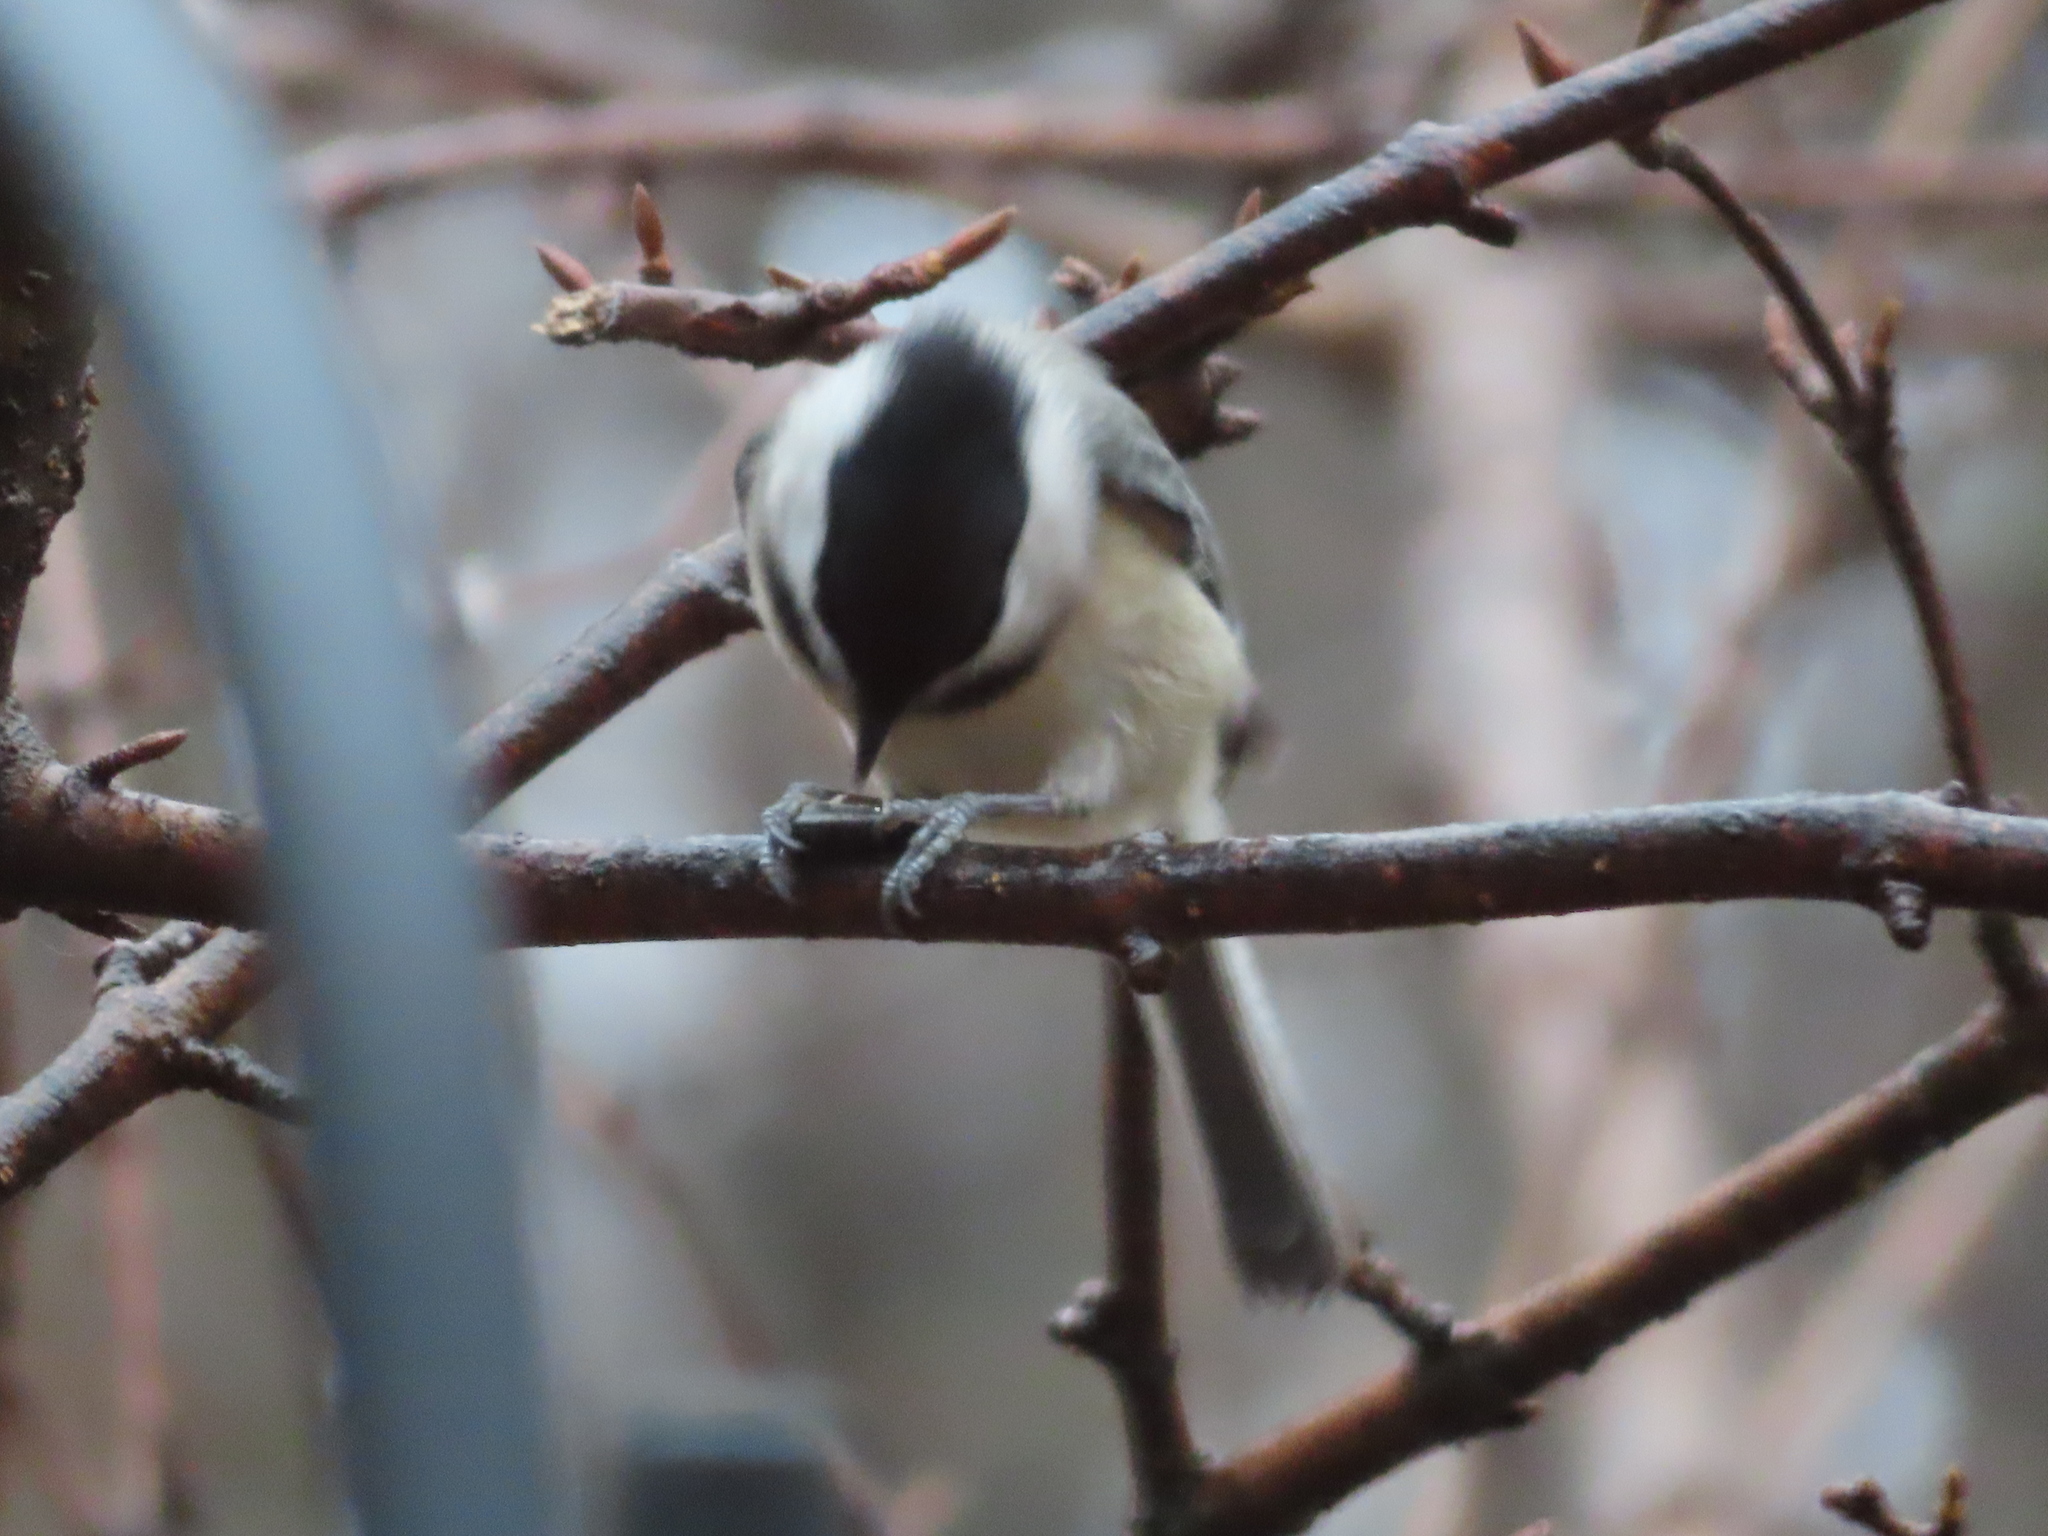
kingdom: Animalia
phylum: Chordata
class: Aves
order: Passeriformes
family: Paridae
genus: Poecile
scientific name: Poecile carolinensis
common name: Carolina chickadee
